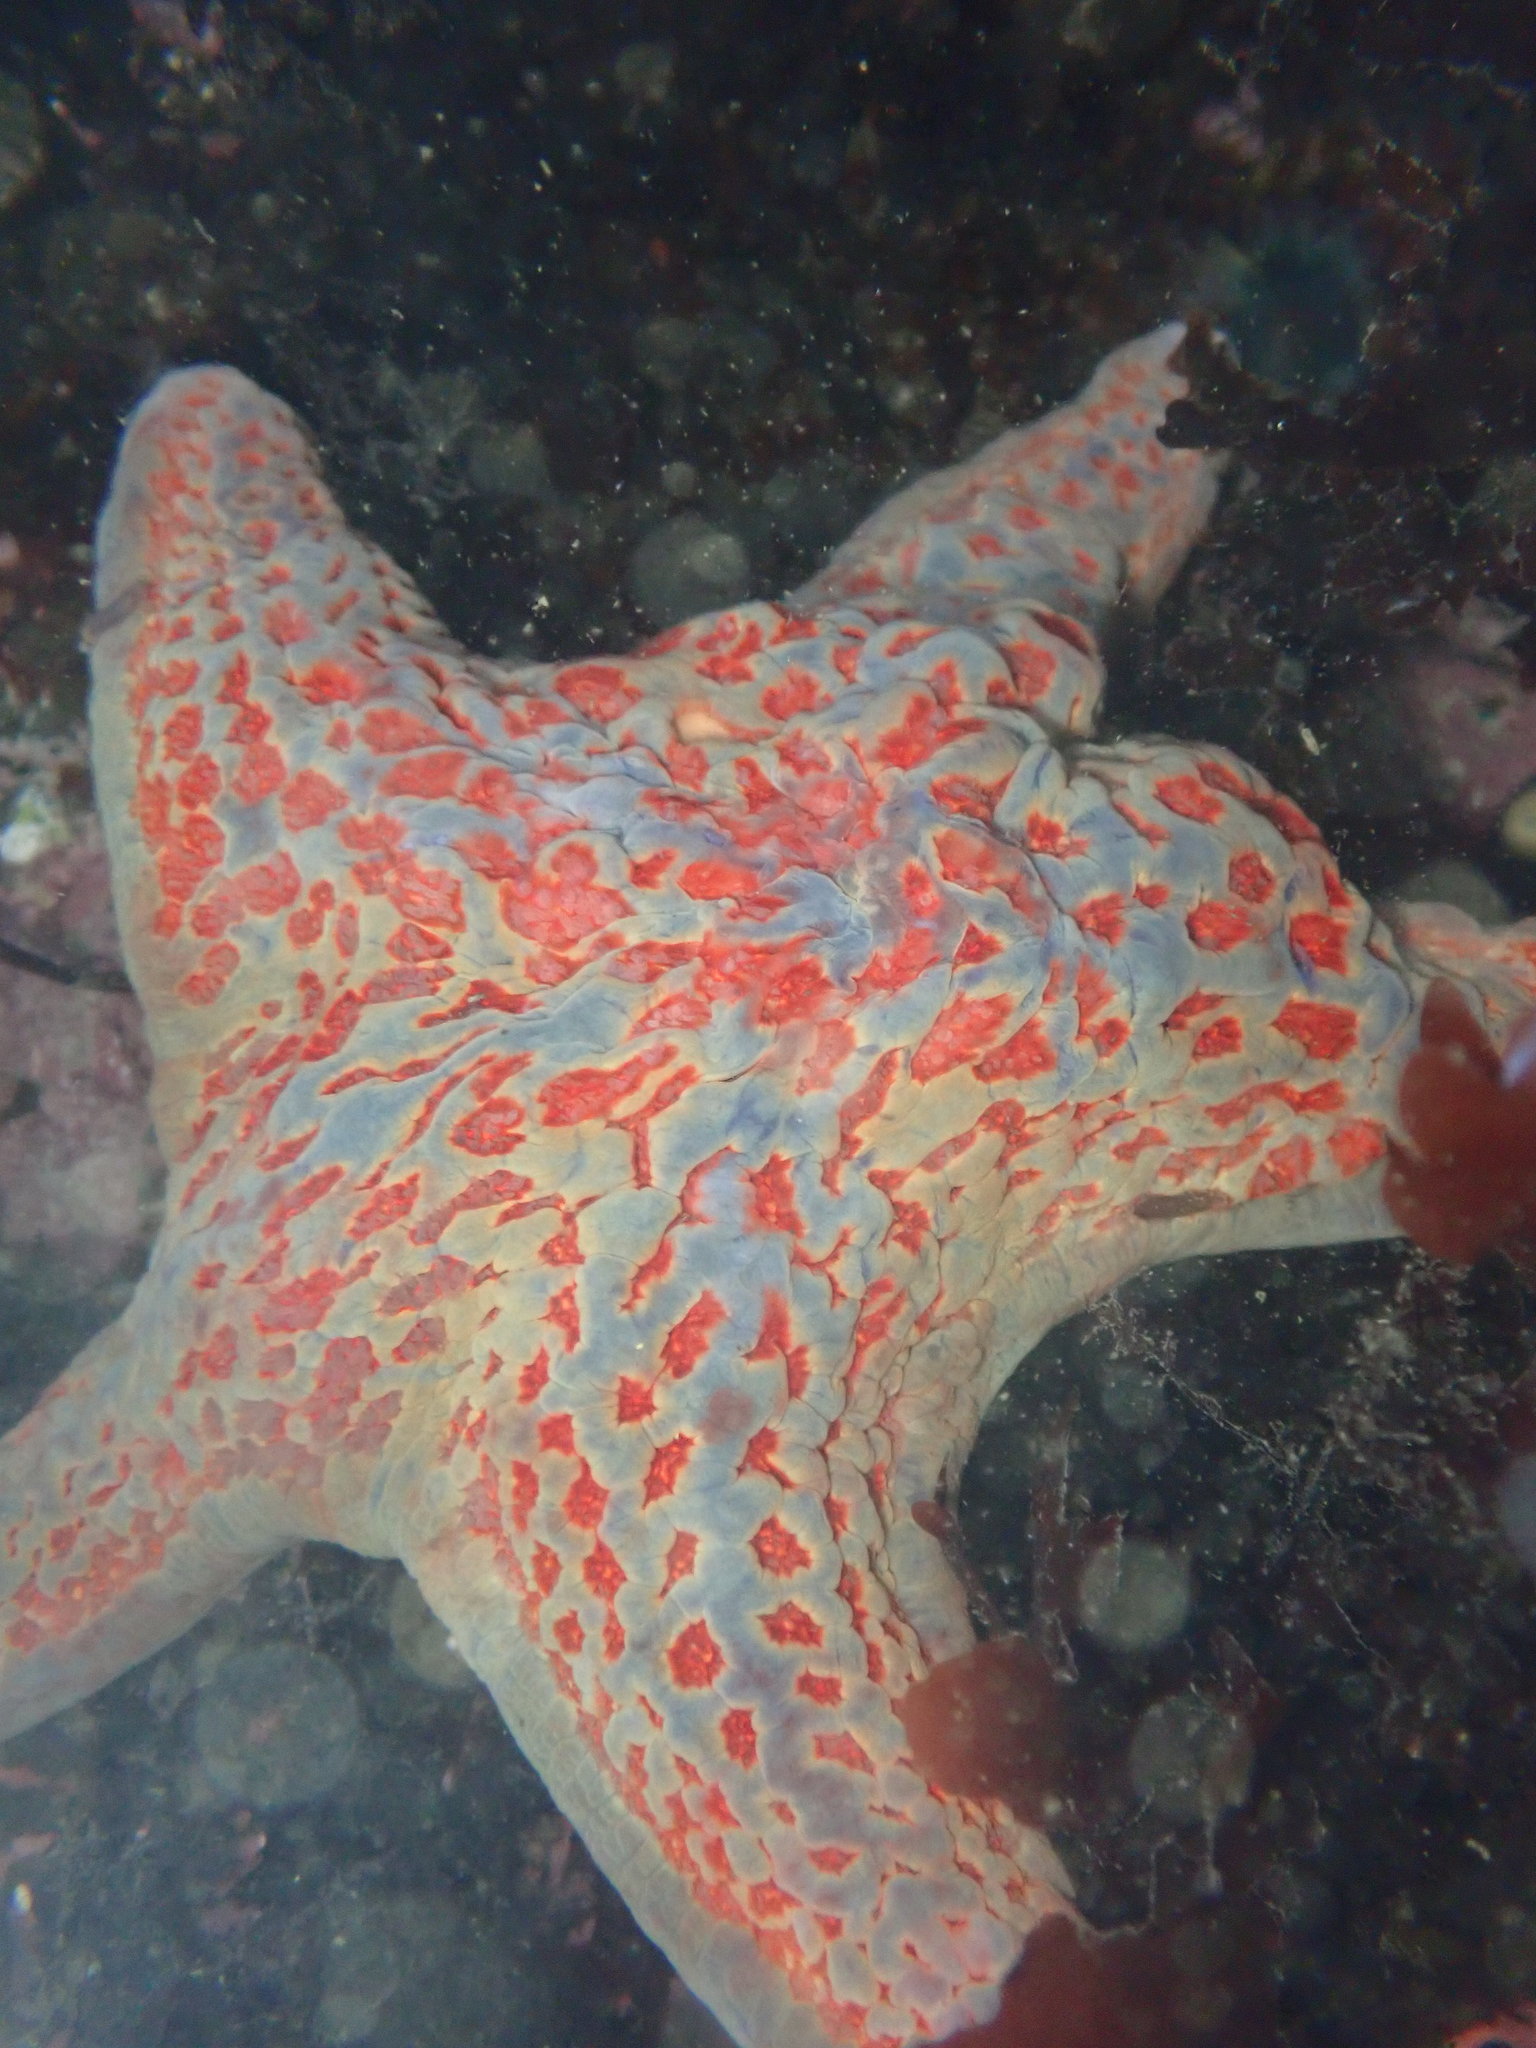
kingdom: Animalia
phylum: Echinodermata
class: Asteroidea
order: Valvatida
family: Asteropseidae
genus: Dermasterias
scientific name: Dermasterias imbricata
